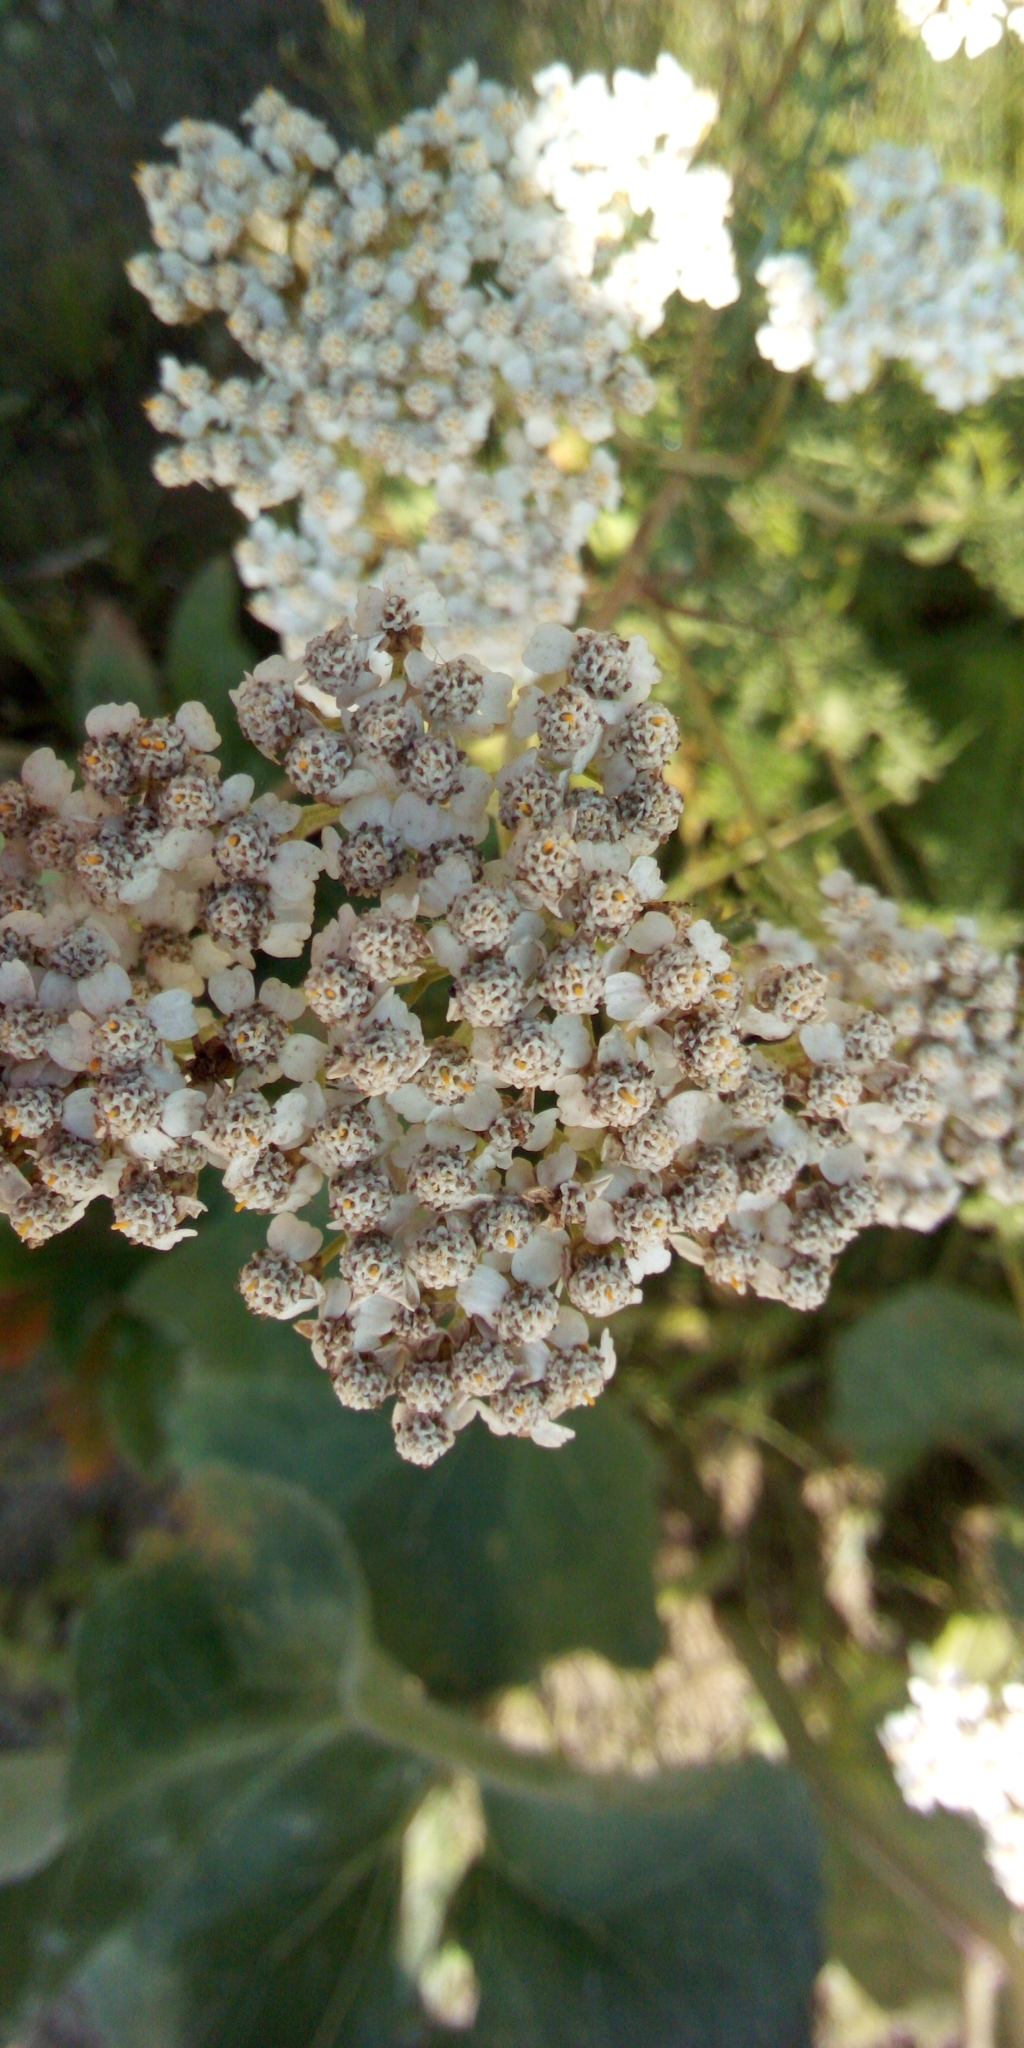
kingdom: Plantae
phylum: Tracheophyta
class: Magnoliopsida
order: Asterales
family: Asteraceae
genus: Achillea
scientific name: Achillea millefolium
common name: Yarrow
